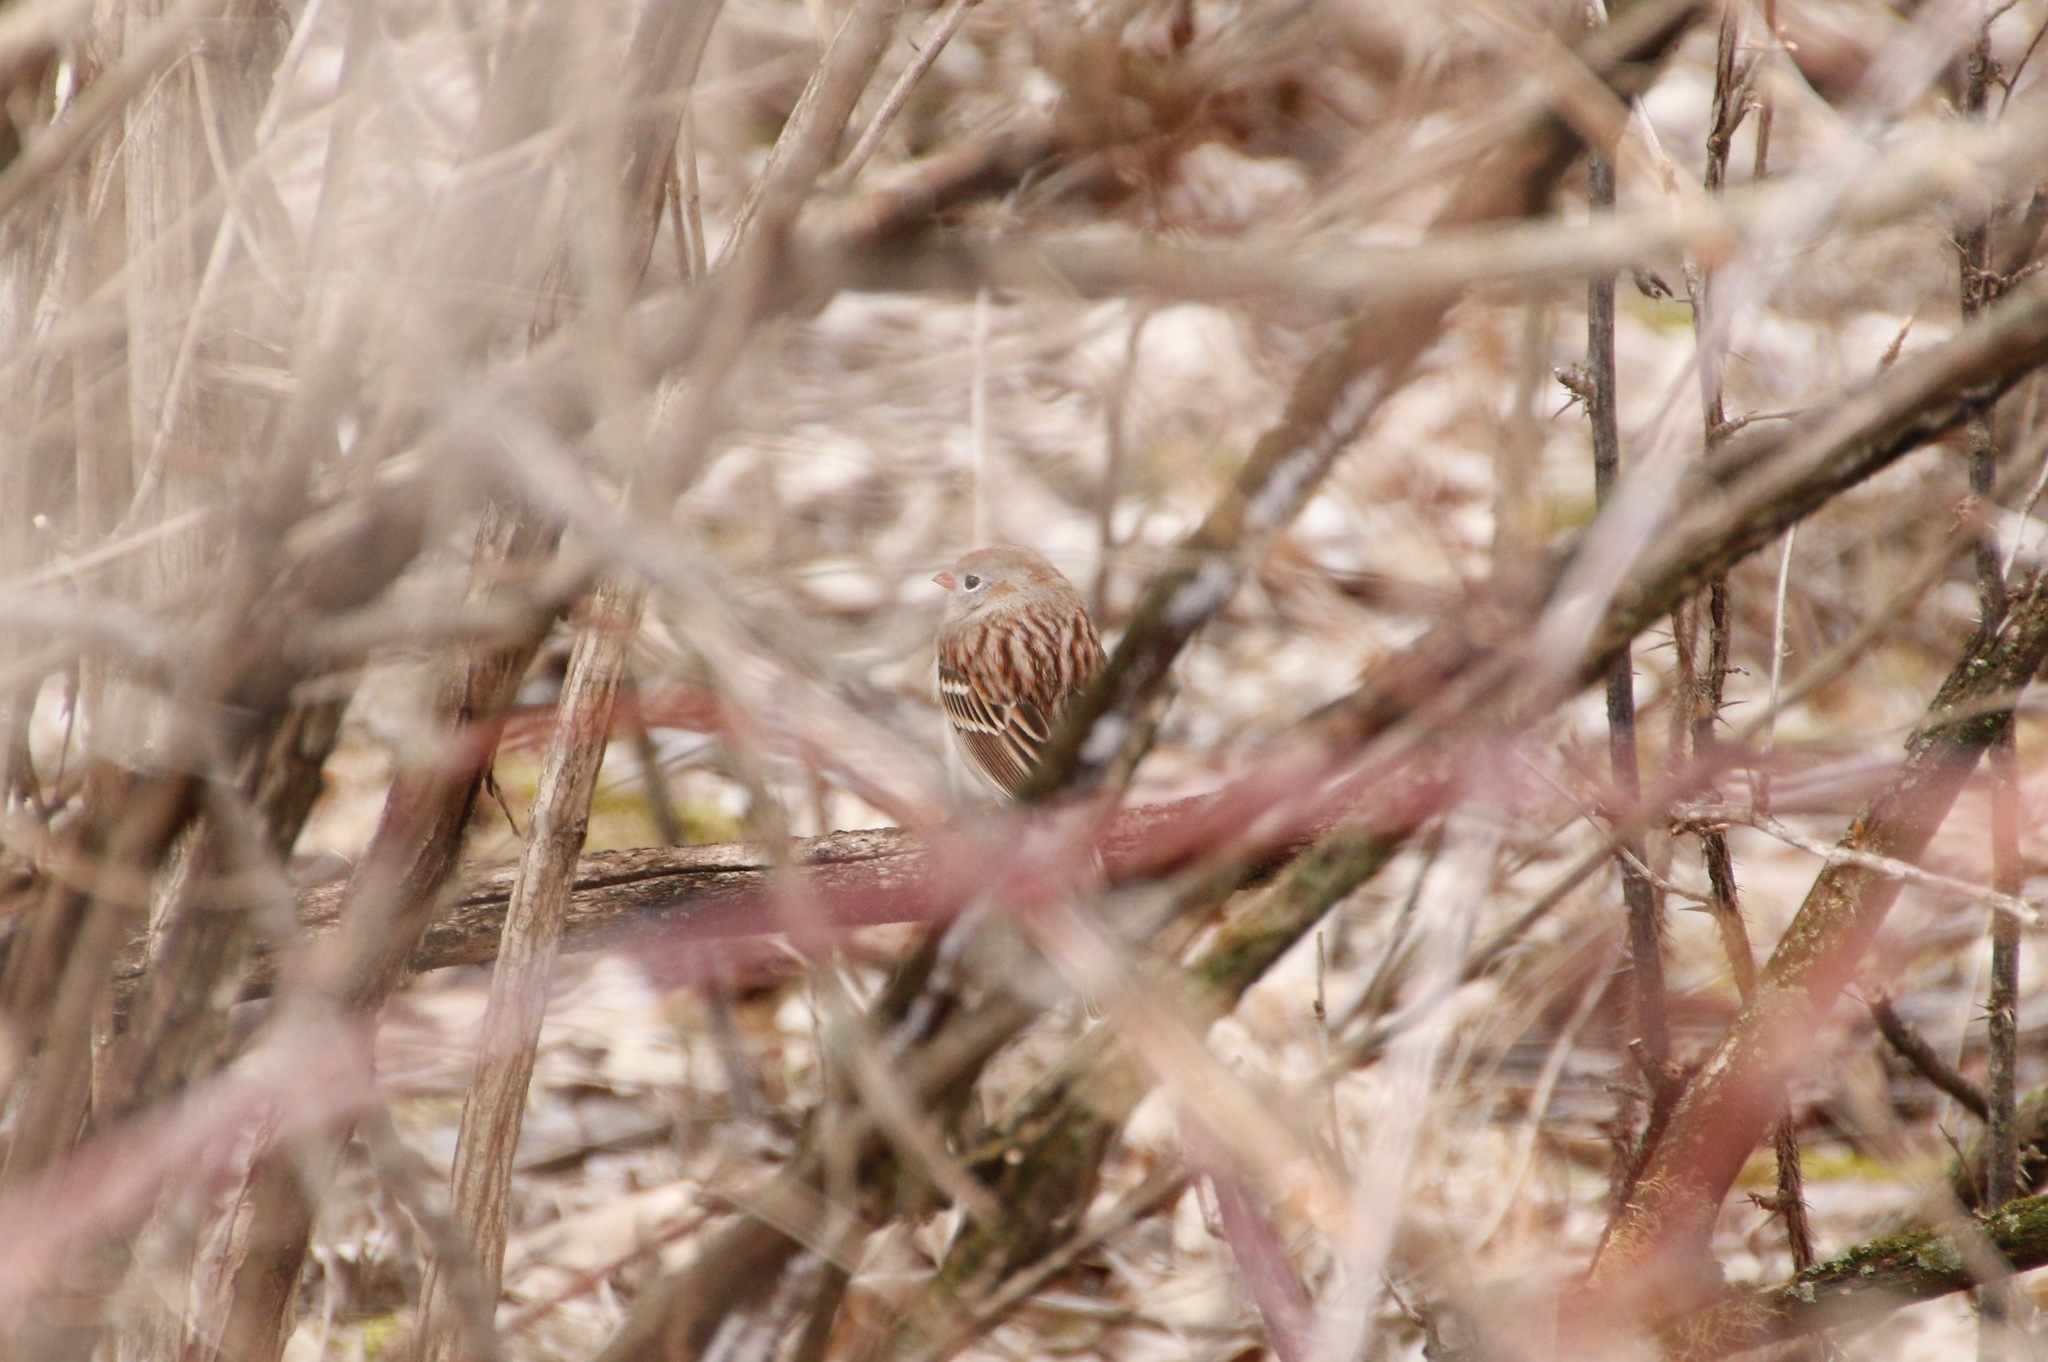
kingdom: Animalia
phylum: Chordata
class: Aves
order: Passeriformes
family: Passerellidae
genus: Spizella
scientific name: Spizella pusilla
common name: Field sparrow
